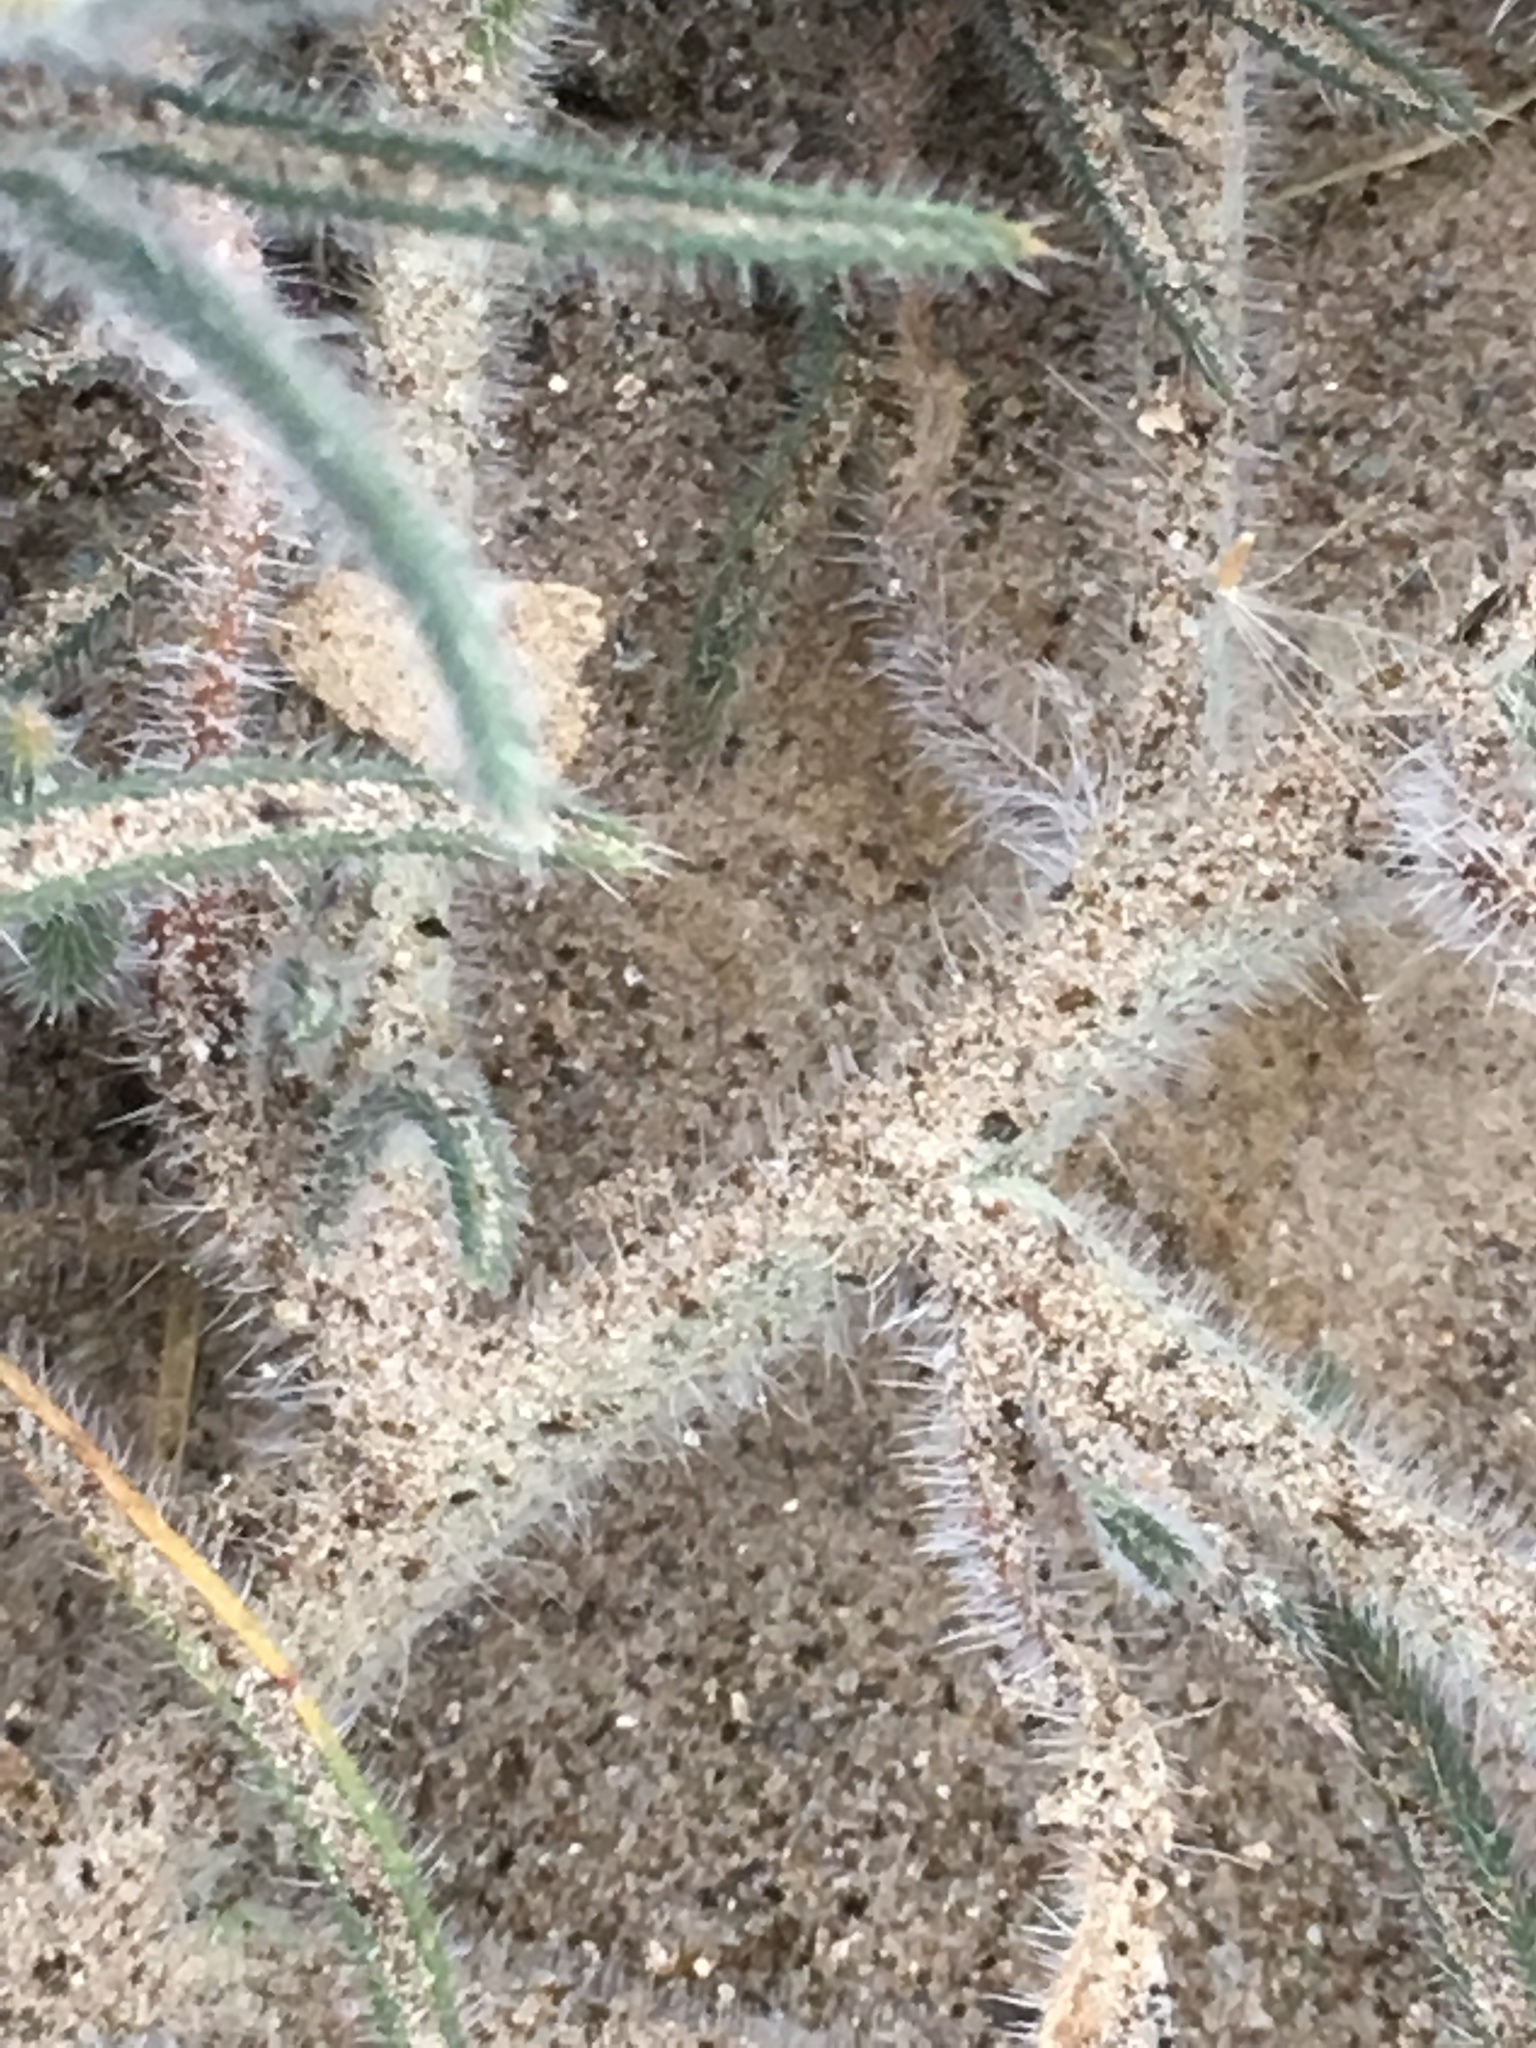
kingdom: Plantae
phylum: Tracheophyta
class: Magnoliopsida
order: Boraginales
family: Boraginaceae
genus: Johnstonella
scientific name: Johnstonella angustifolia
